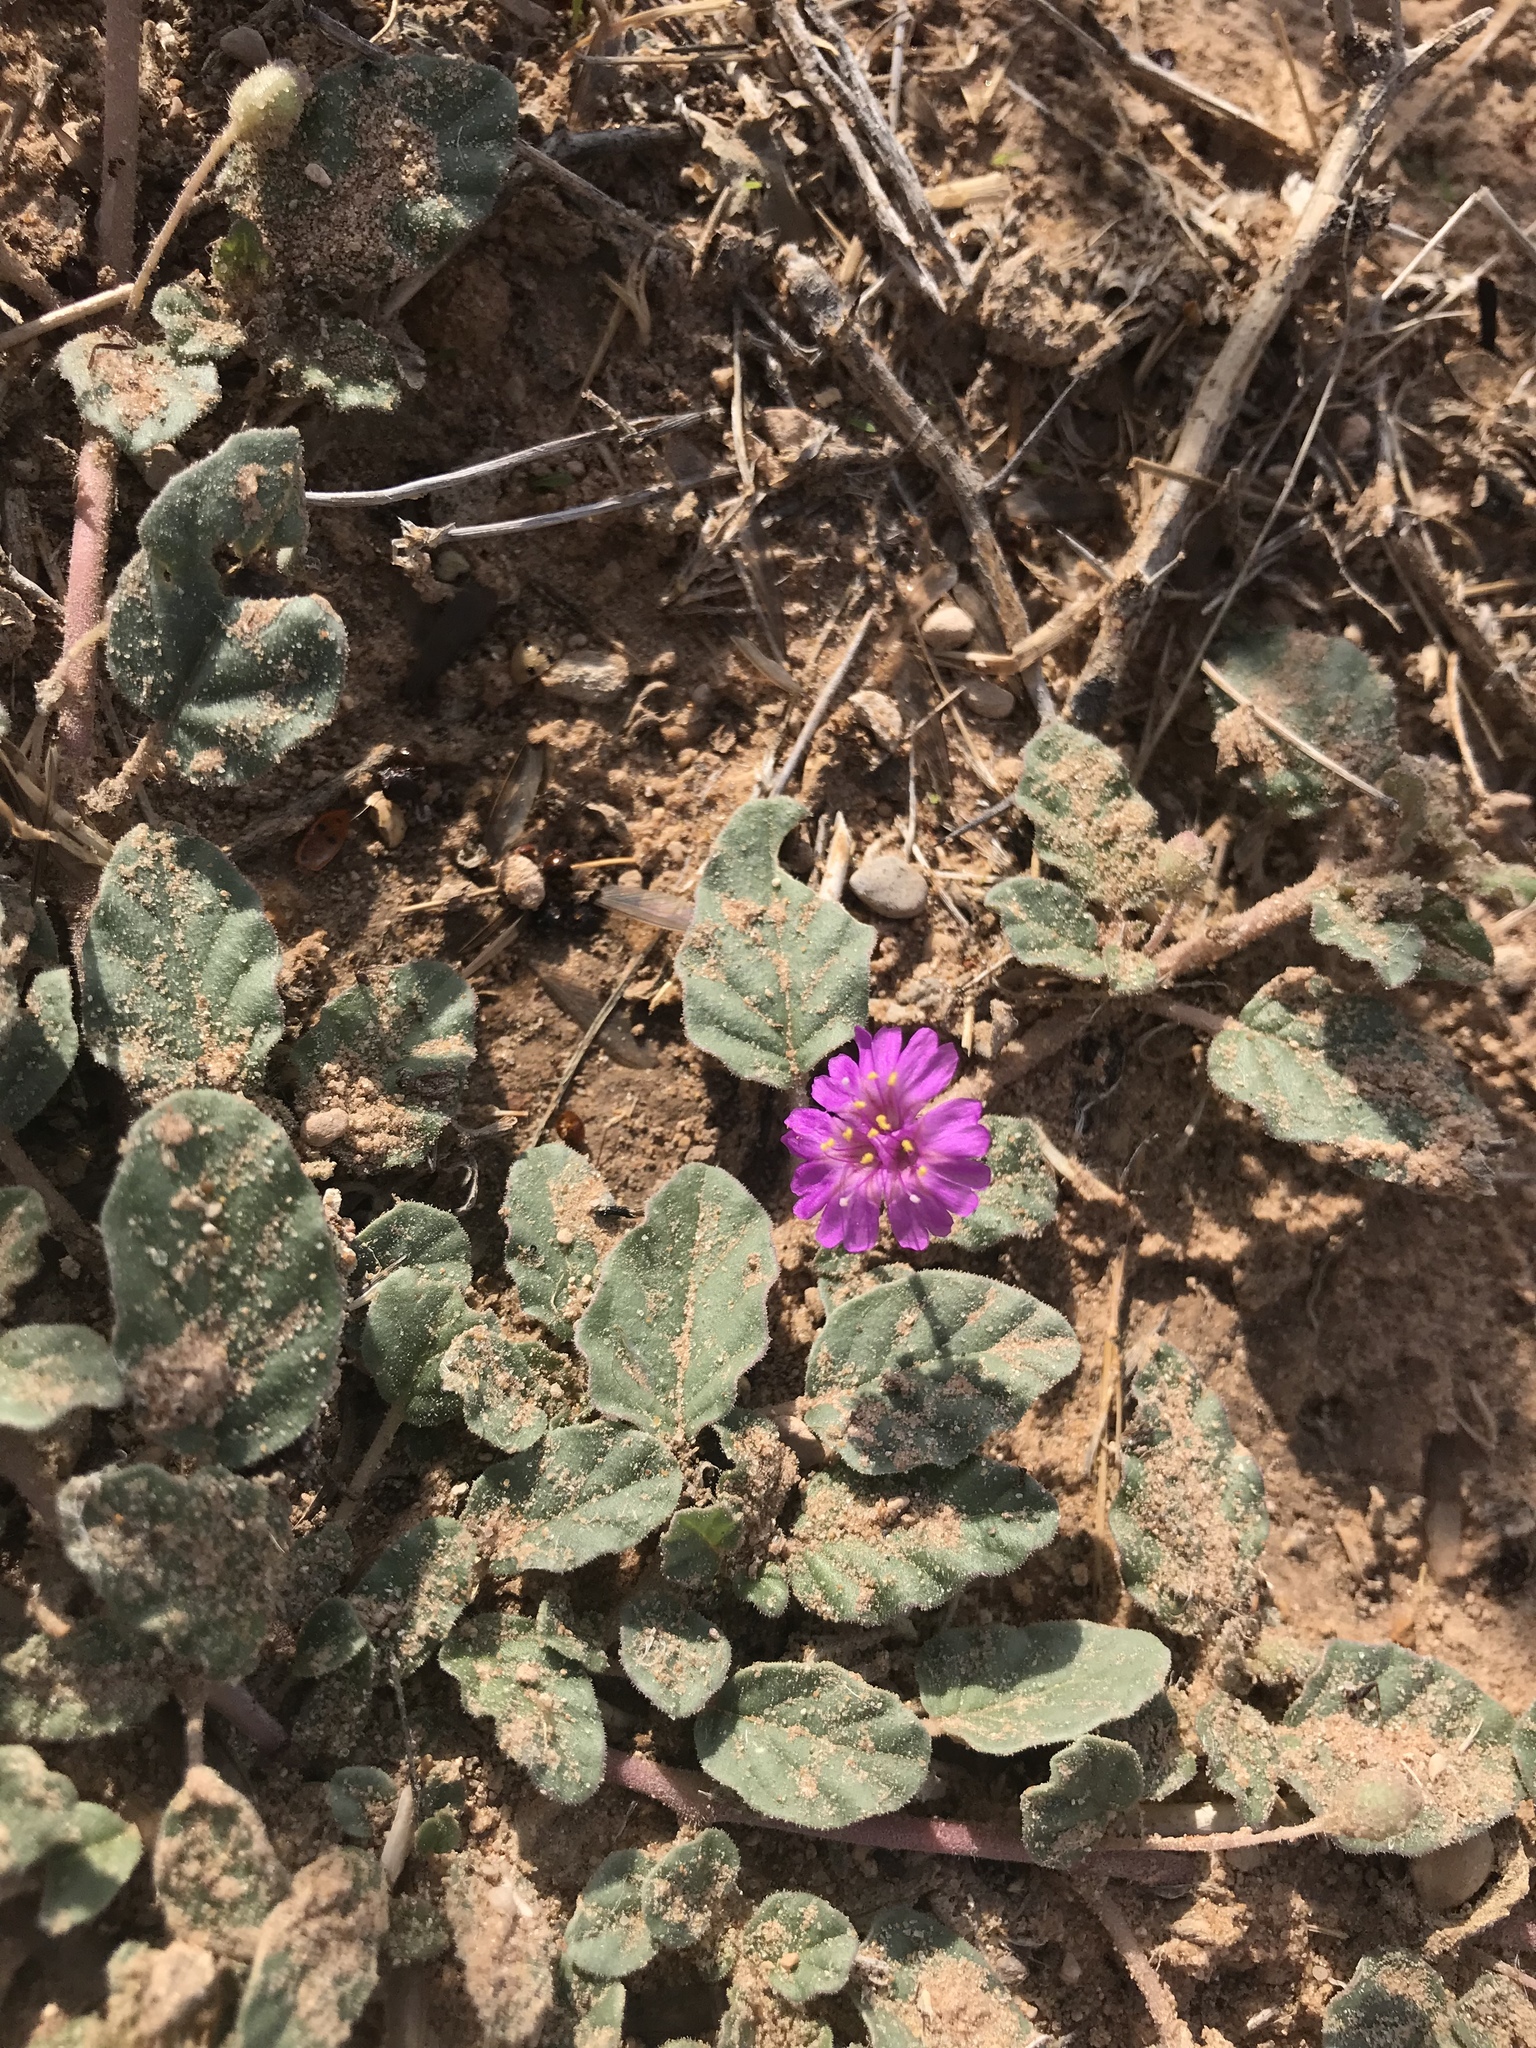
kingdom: Plantae
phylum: Tracheophyta
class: Magnoliopsida
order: Caryophyllales
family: Nyctaginaceae
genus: Allionia
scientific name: Allionia incarnata
